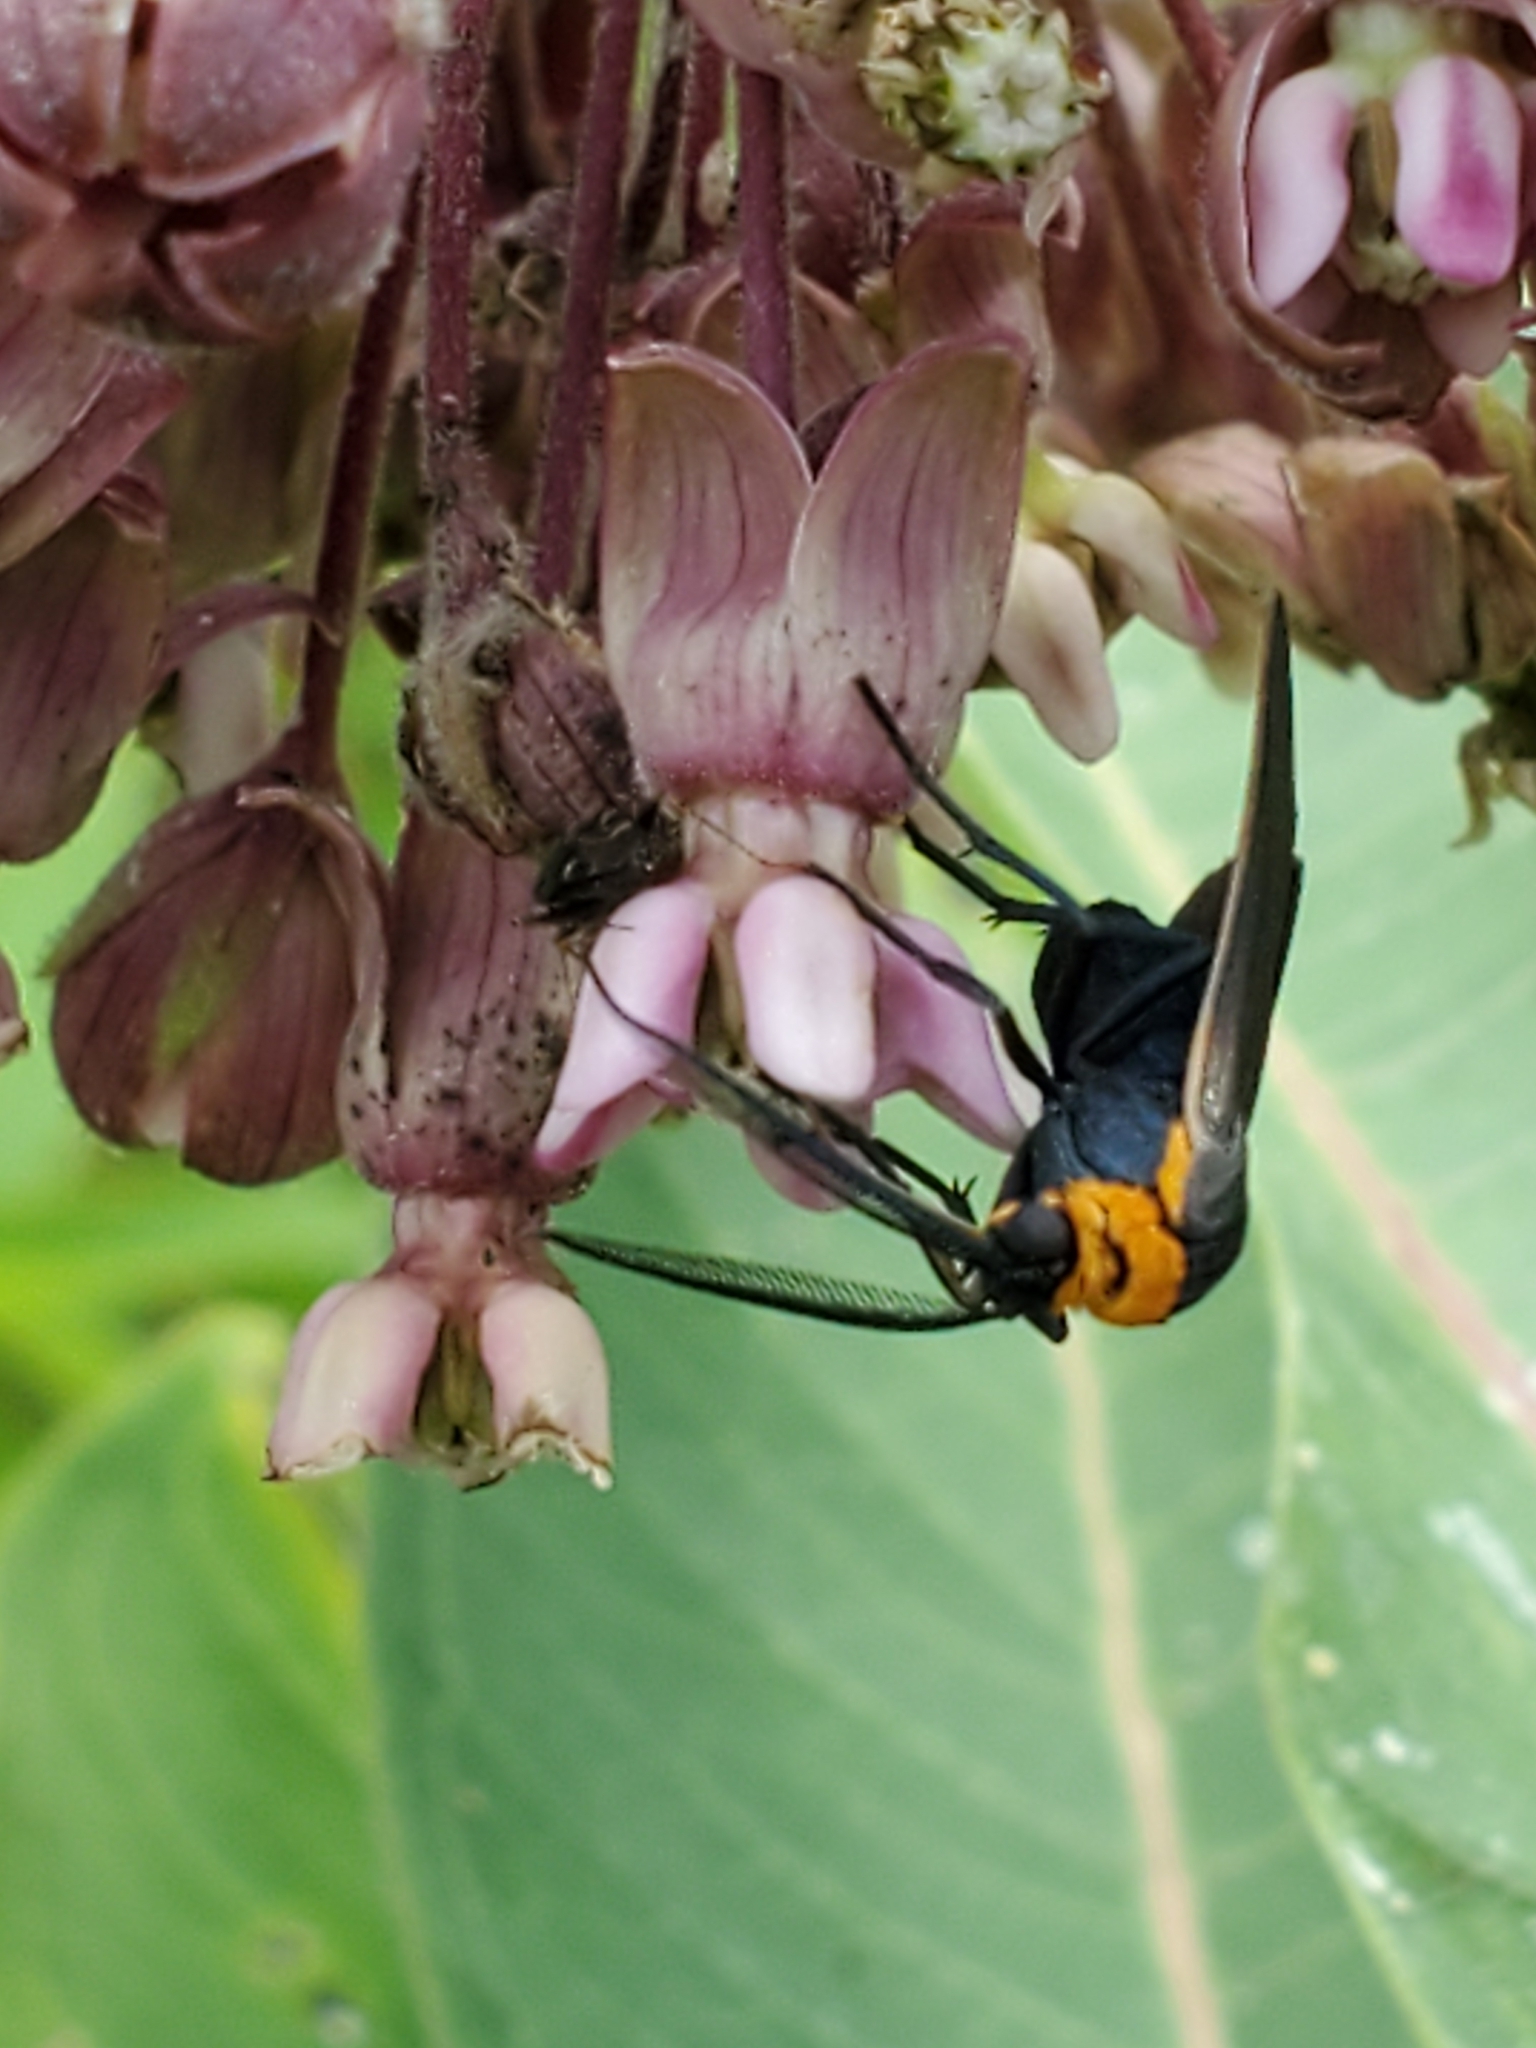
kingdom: Animalia
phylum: Arthropoda
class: Insecta
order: Lepidoptera
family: Erebidae
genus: Cisseps
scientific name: Cisseps fulvicollis
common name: Yellow-collared scape moth
